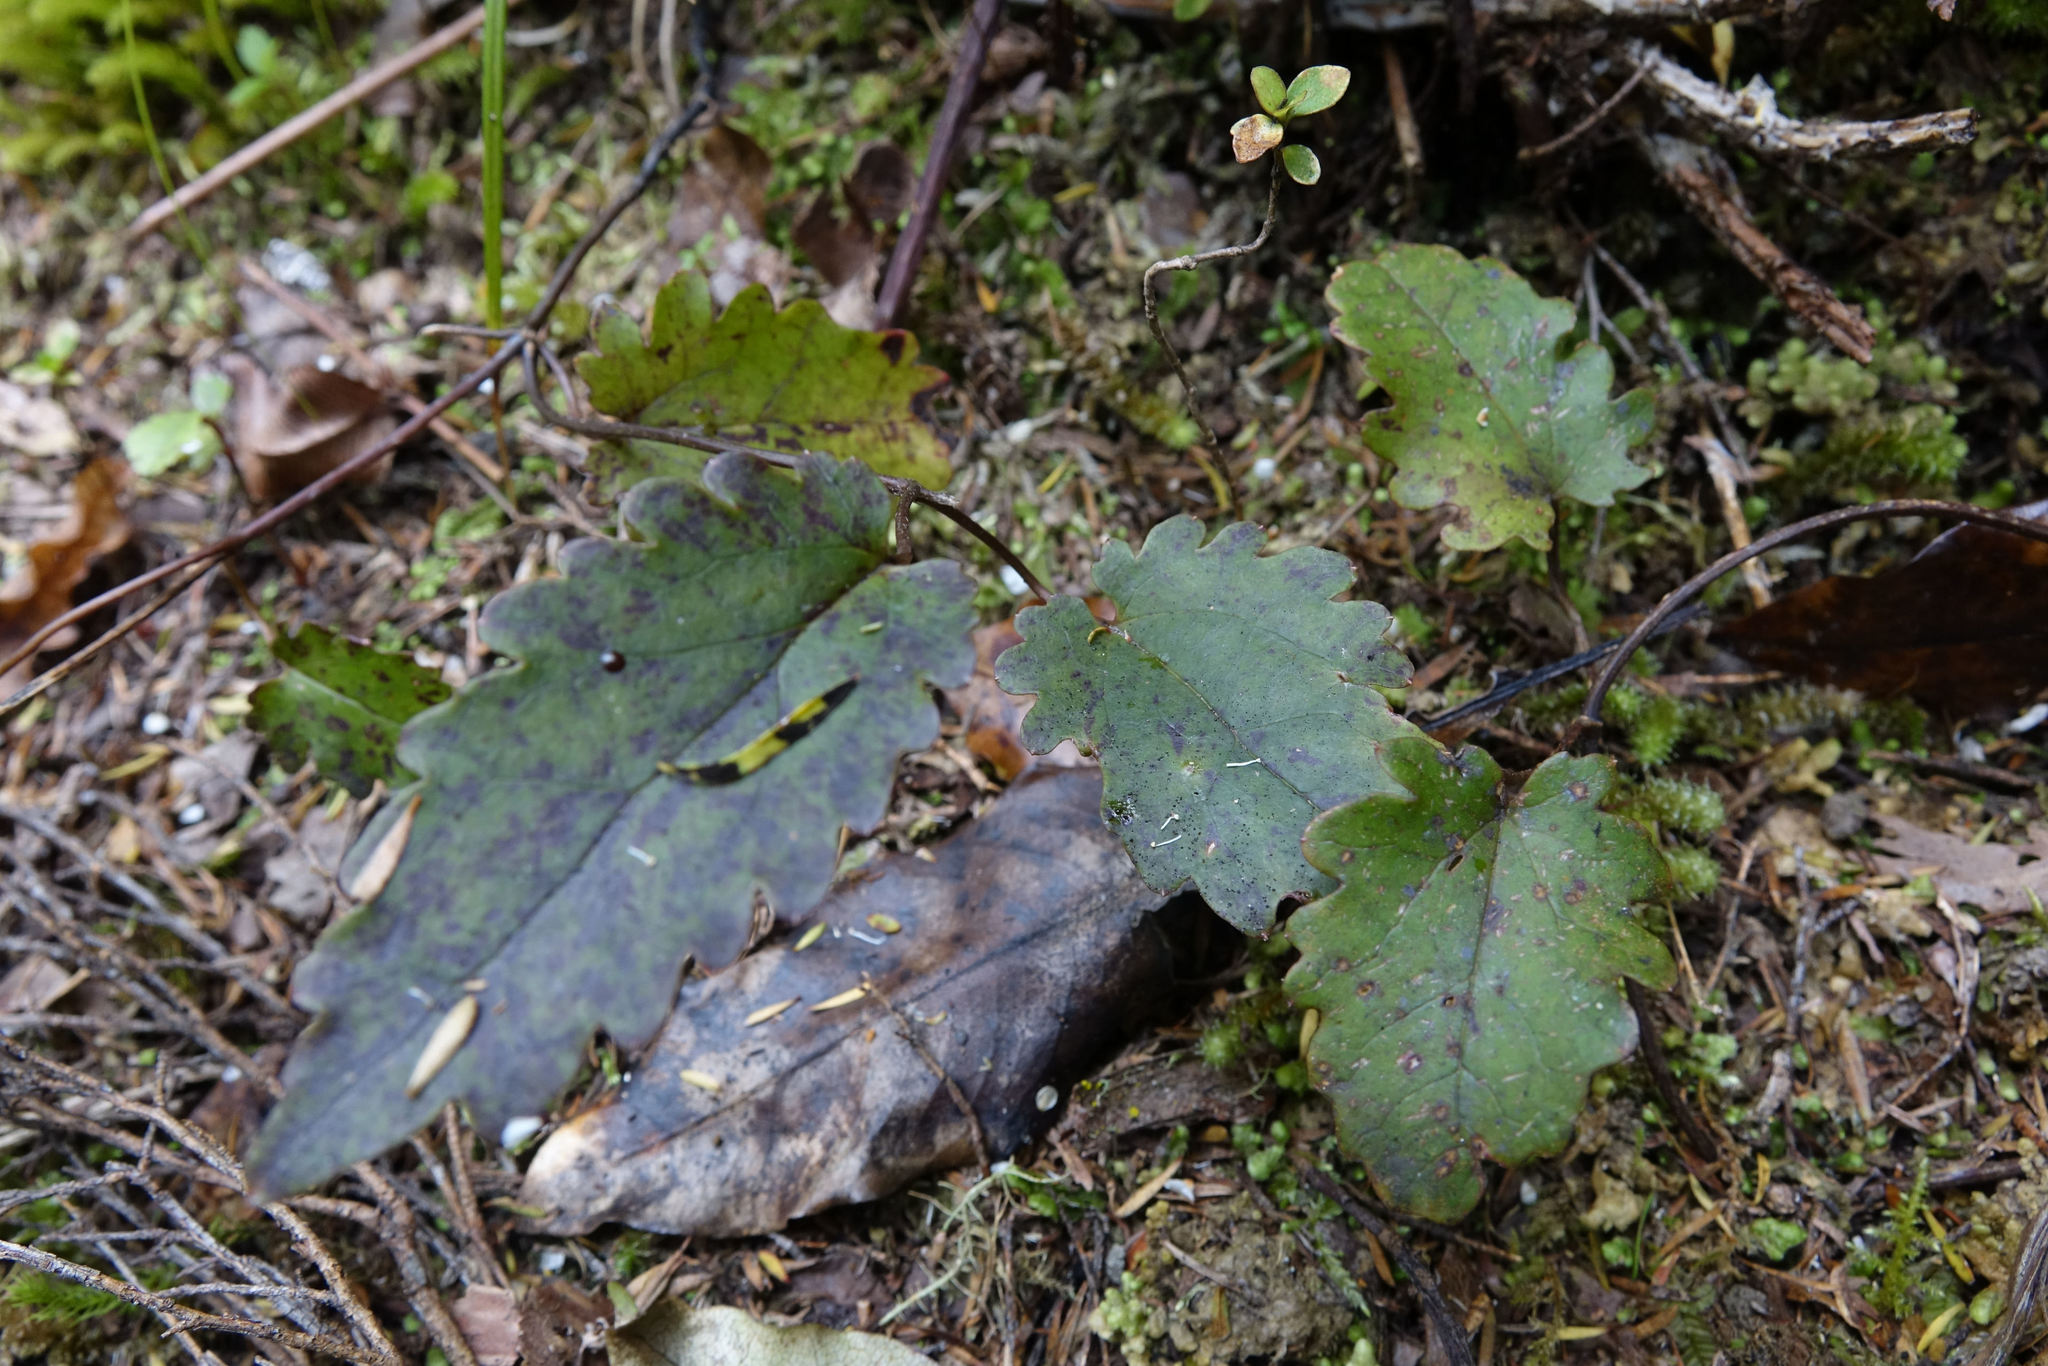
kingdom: Plantae
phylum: Tracheophyta
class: Magnoliopsida
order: Ranunculales
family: Ranunculaceae
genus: Clematis
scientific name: Clematis paniculata
